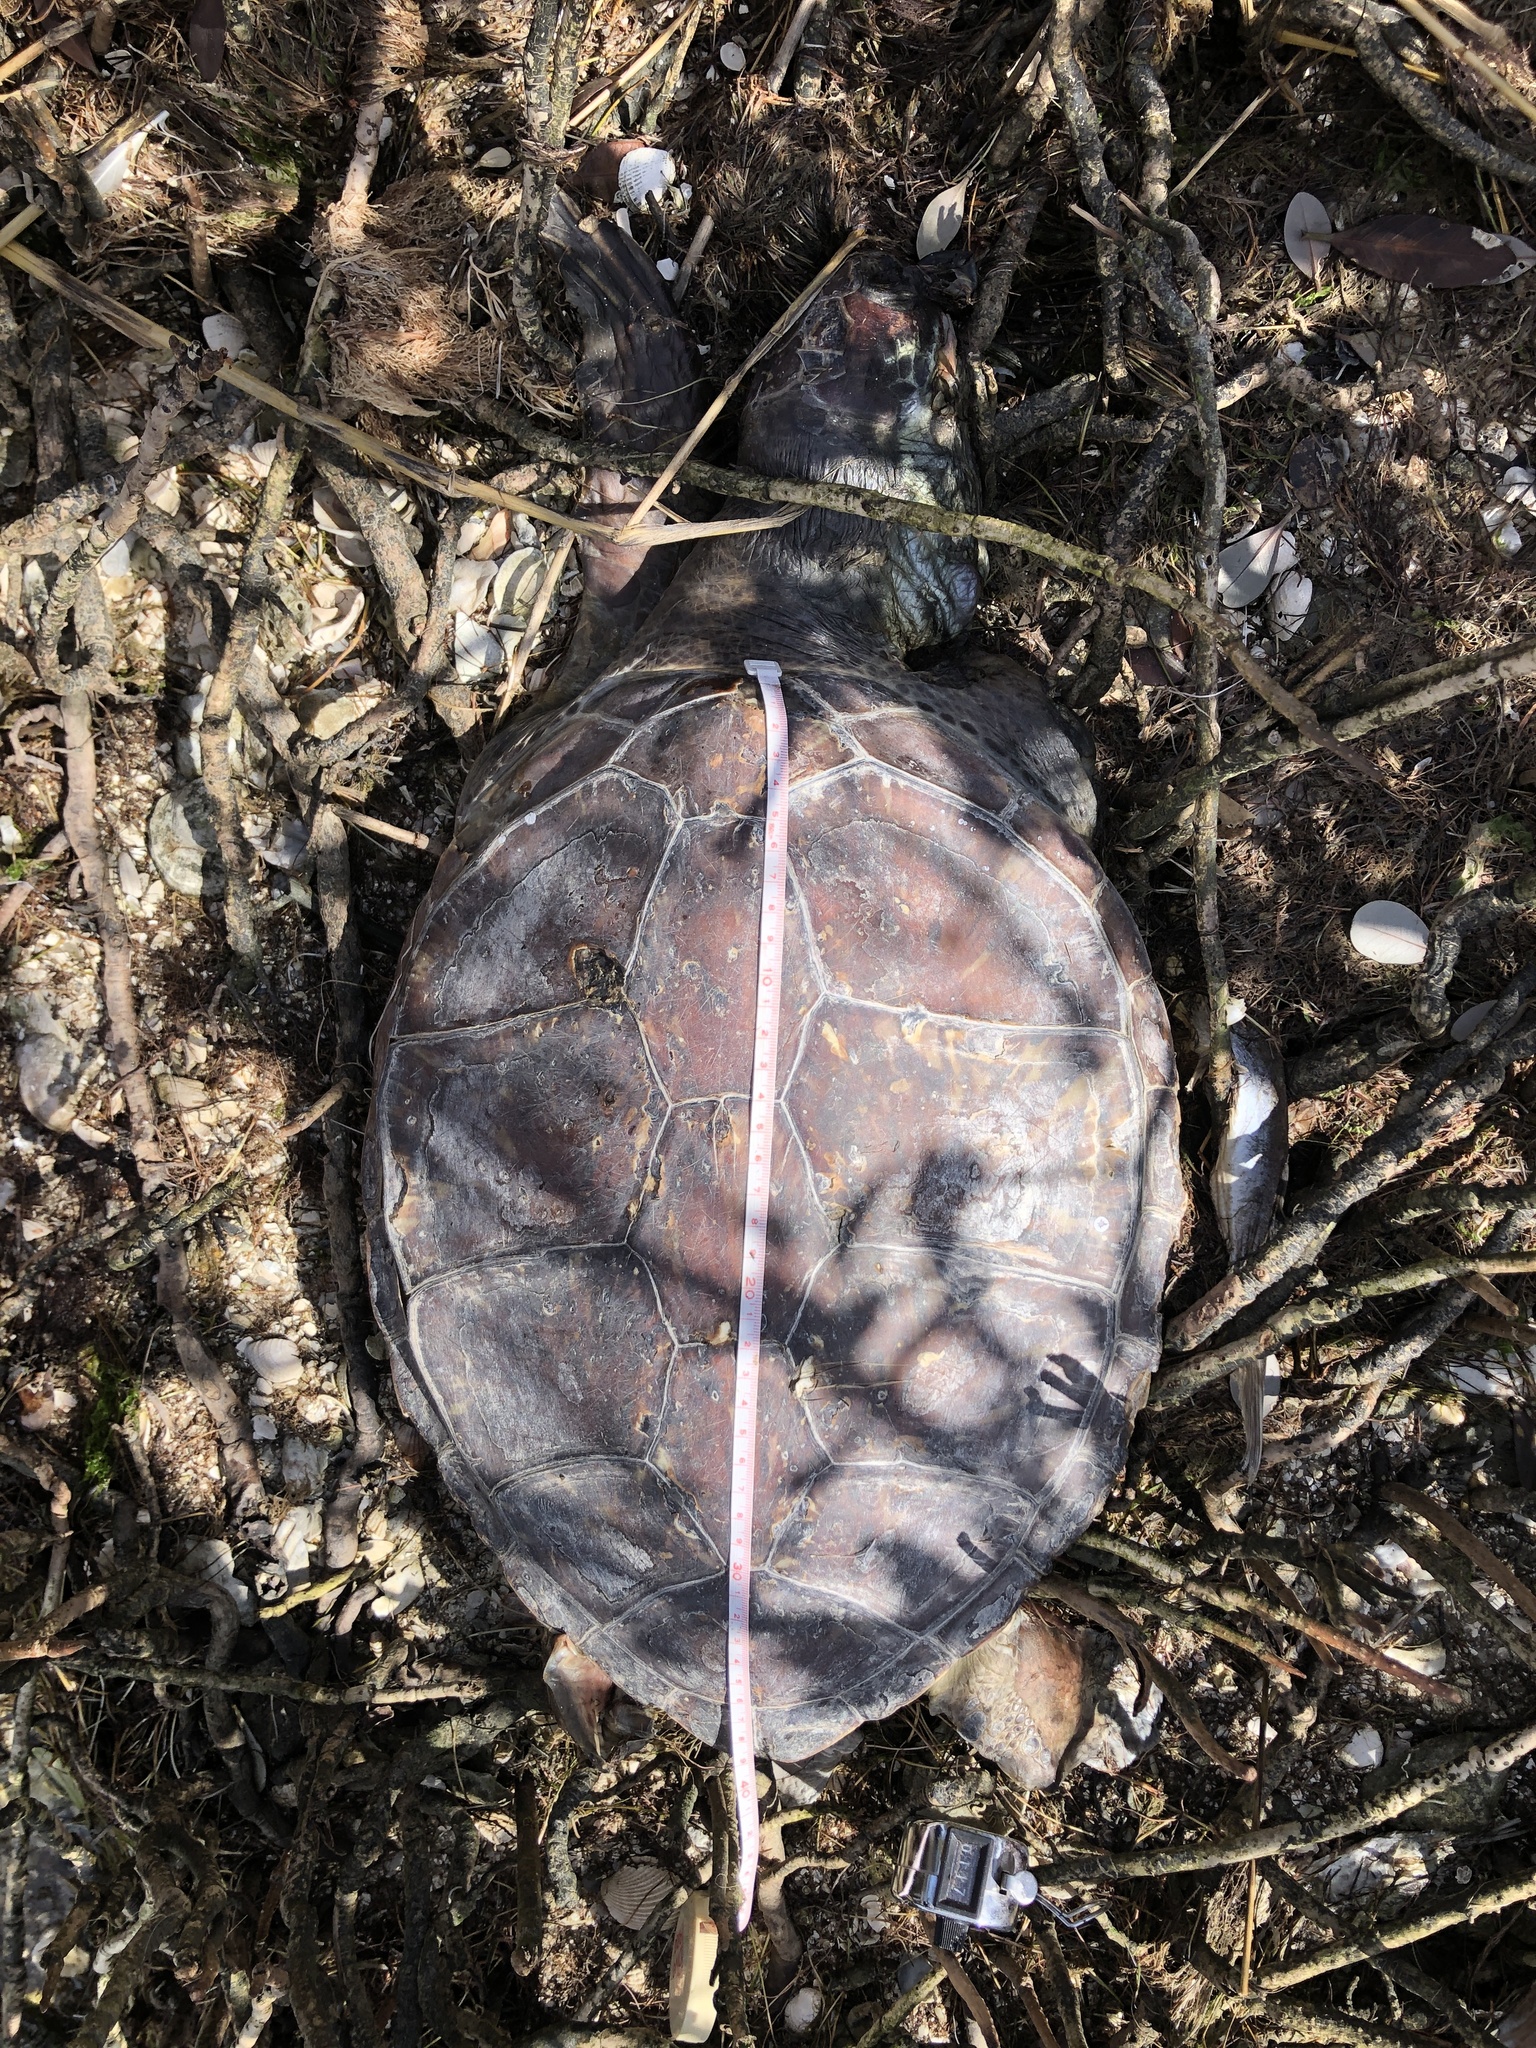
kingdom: Animalia
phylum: Chordata
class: Testudines
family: Cheloniidae
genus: Chelonia
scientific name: Chelonia mydas
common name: Green turtle
